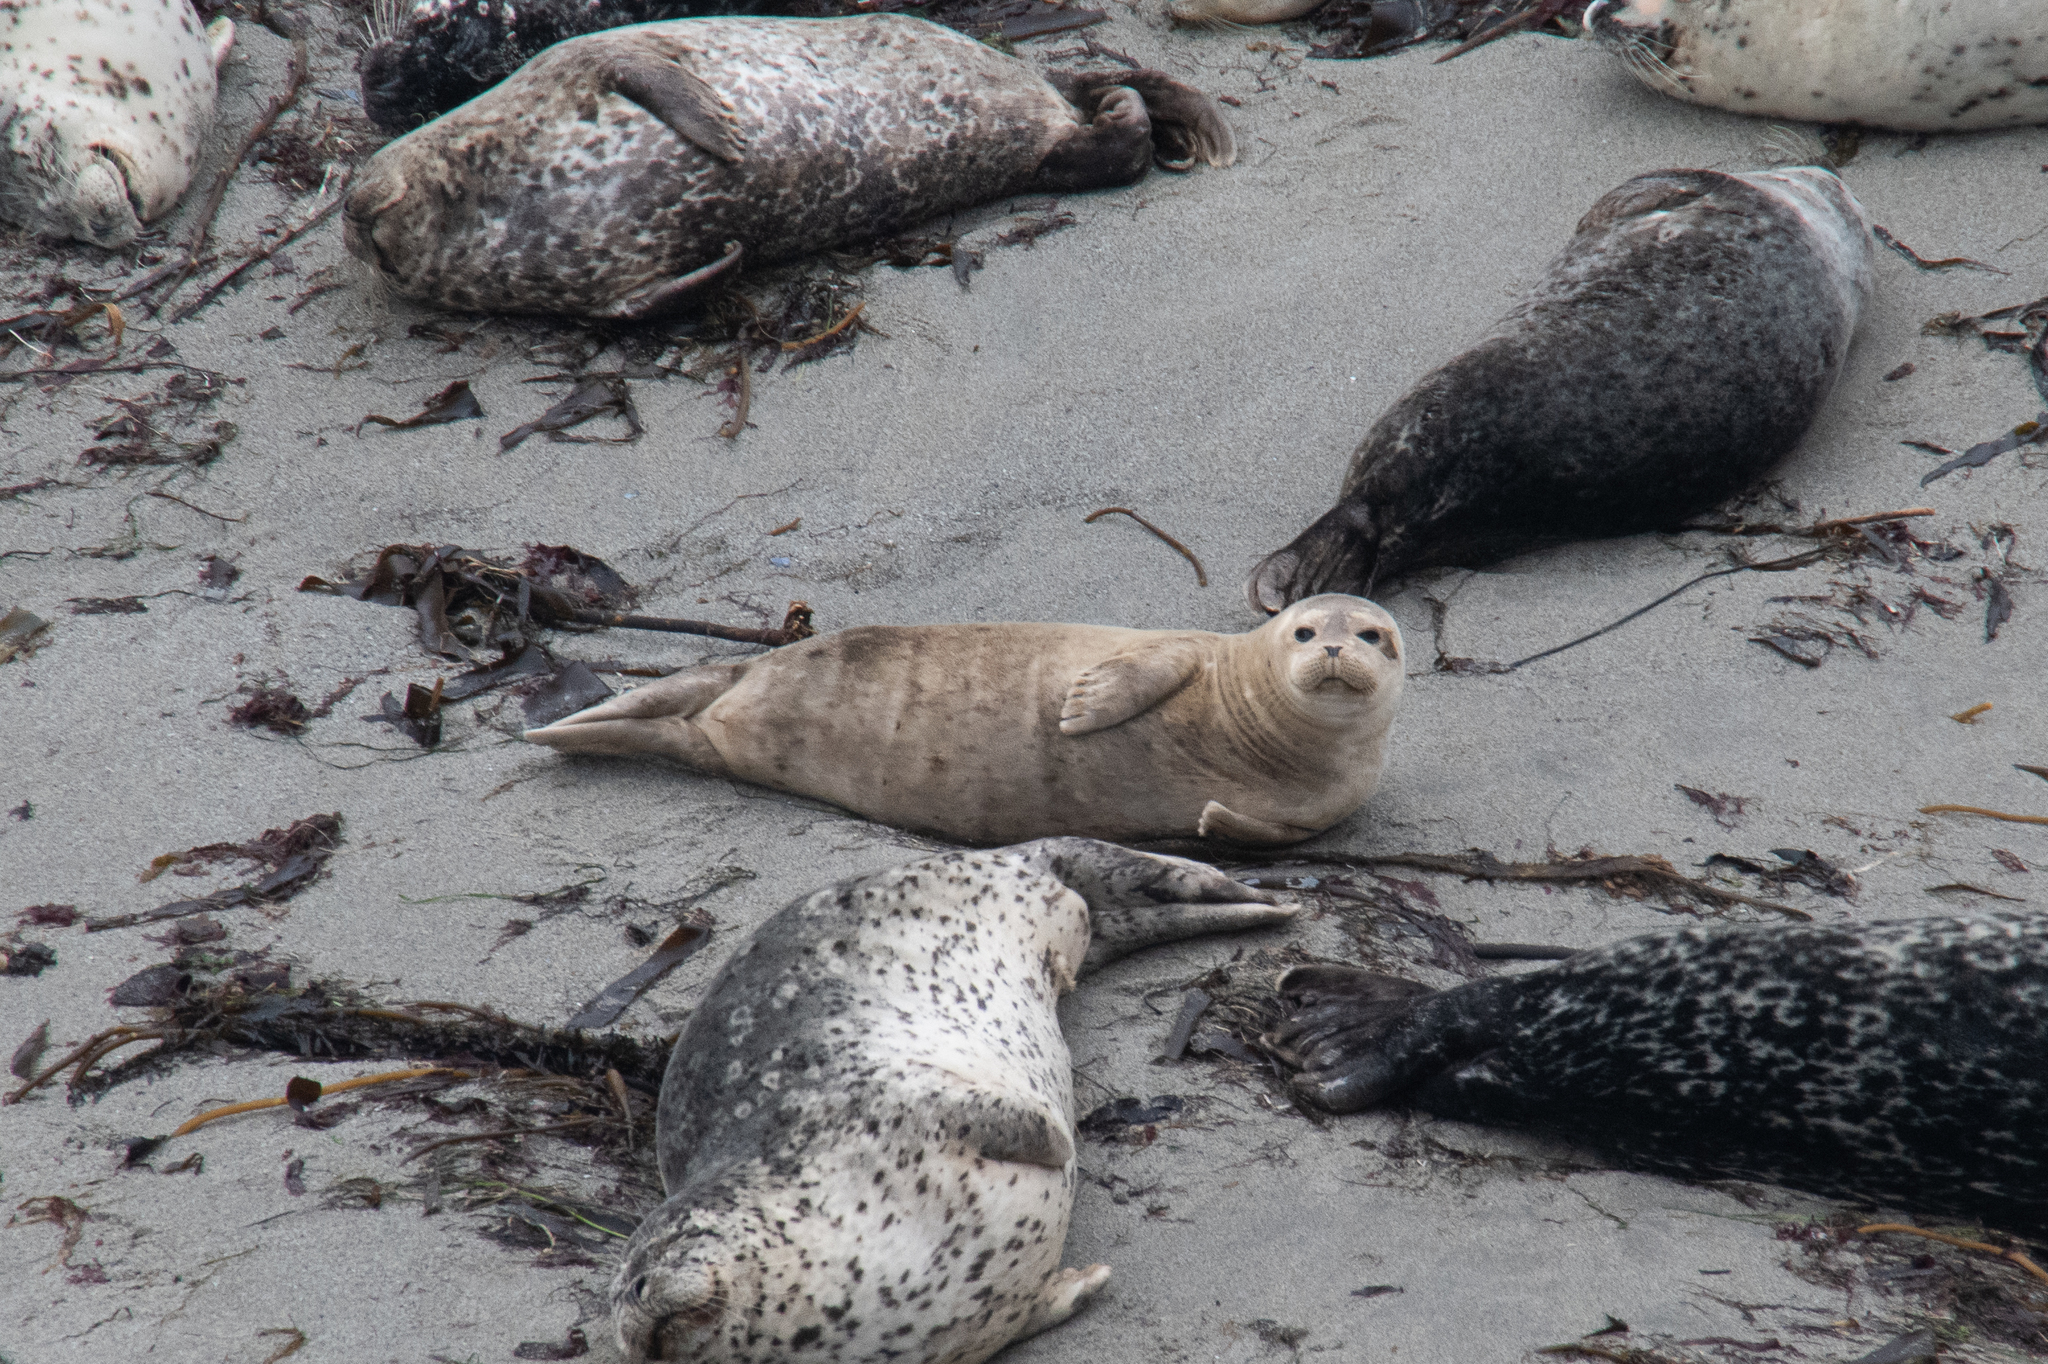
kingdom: Animalia
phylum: Chordata
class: Mammalia
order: Carnivora
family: Phocidae
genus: Phoca
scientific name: Phoca vitulina
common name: Harbor seal
